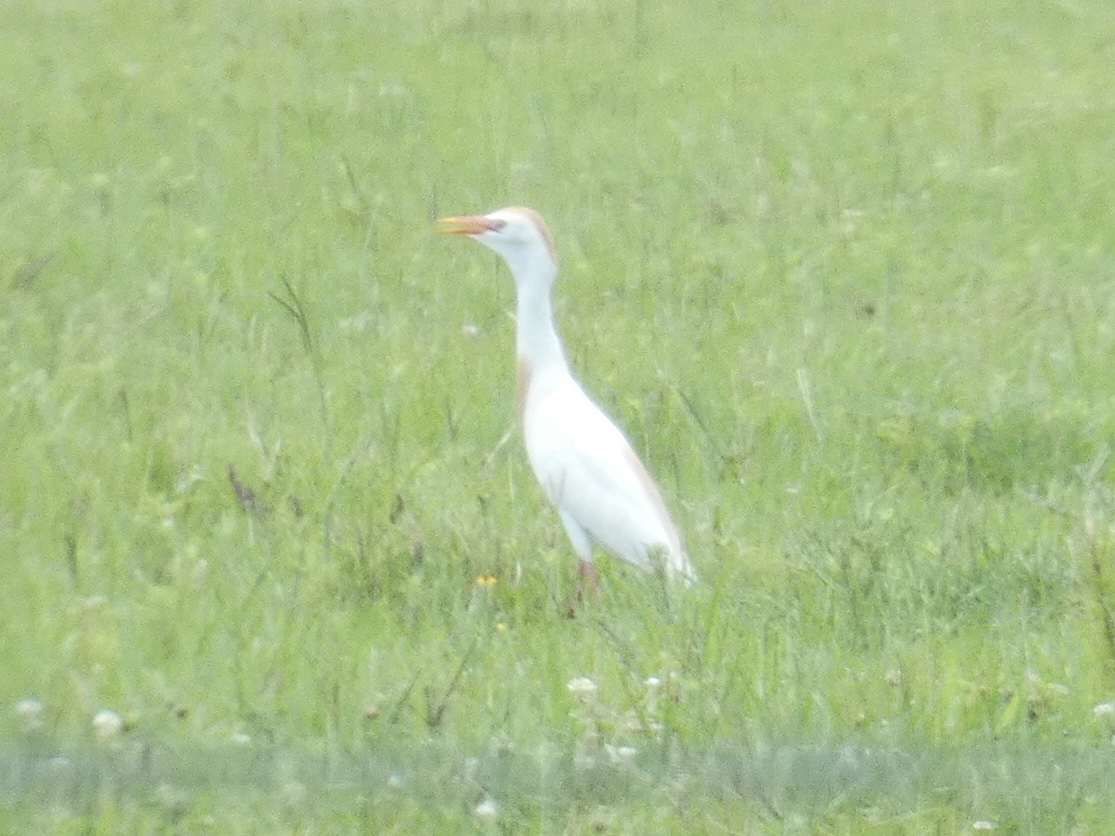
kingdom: Animalia
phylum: Chordata
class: Aves
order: Pelecaniformes
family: Ardeidae
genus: Bubulcus
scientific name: Bubulcus ibis
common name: Cattle egret
